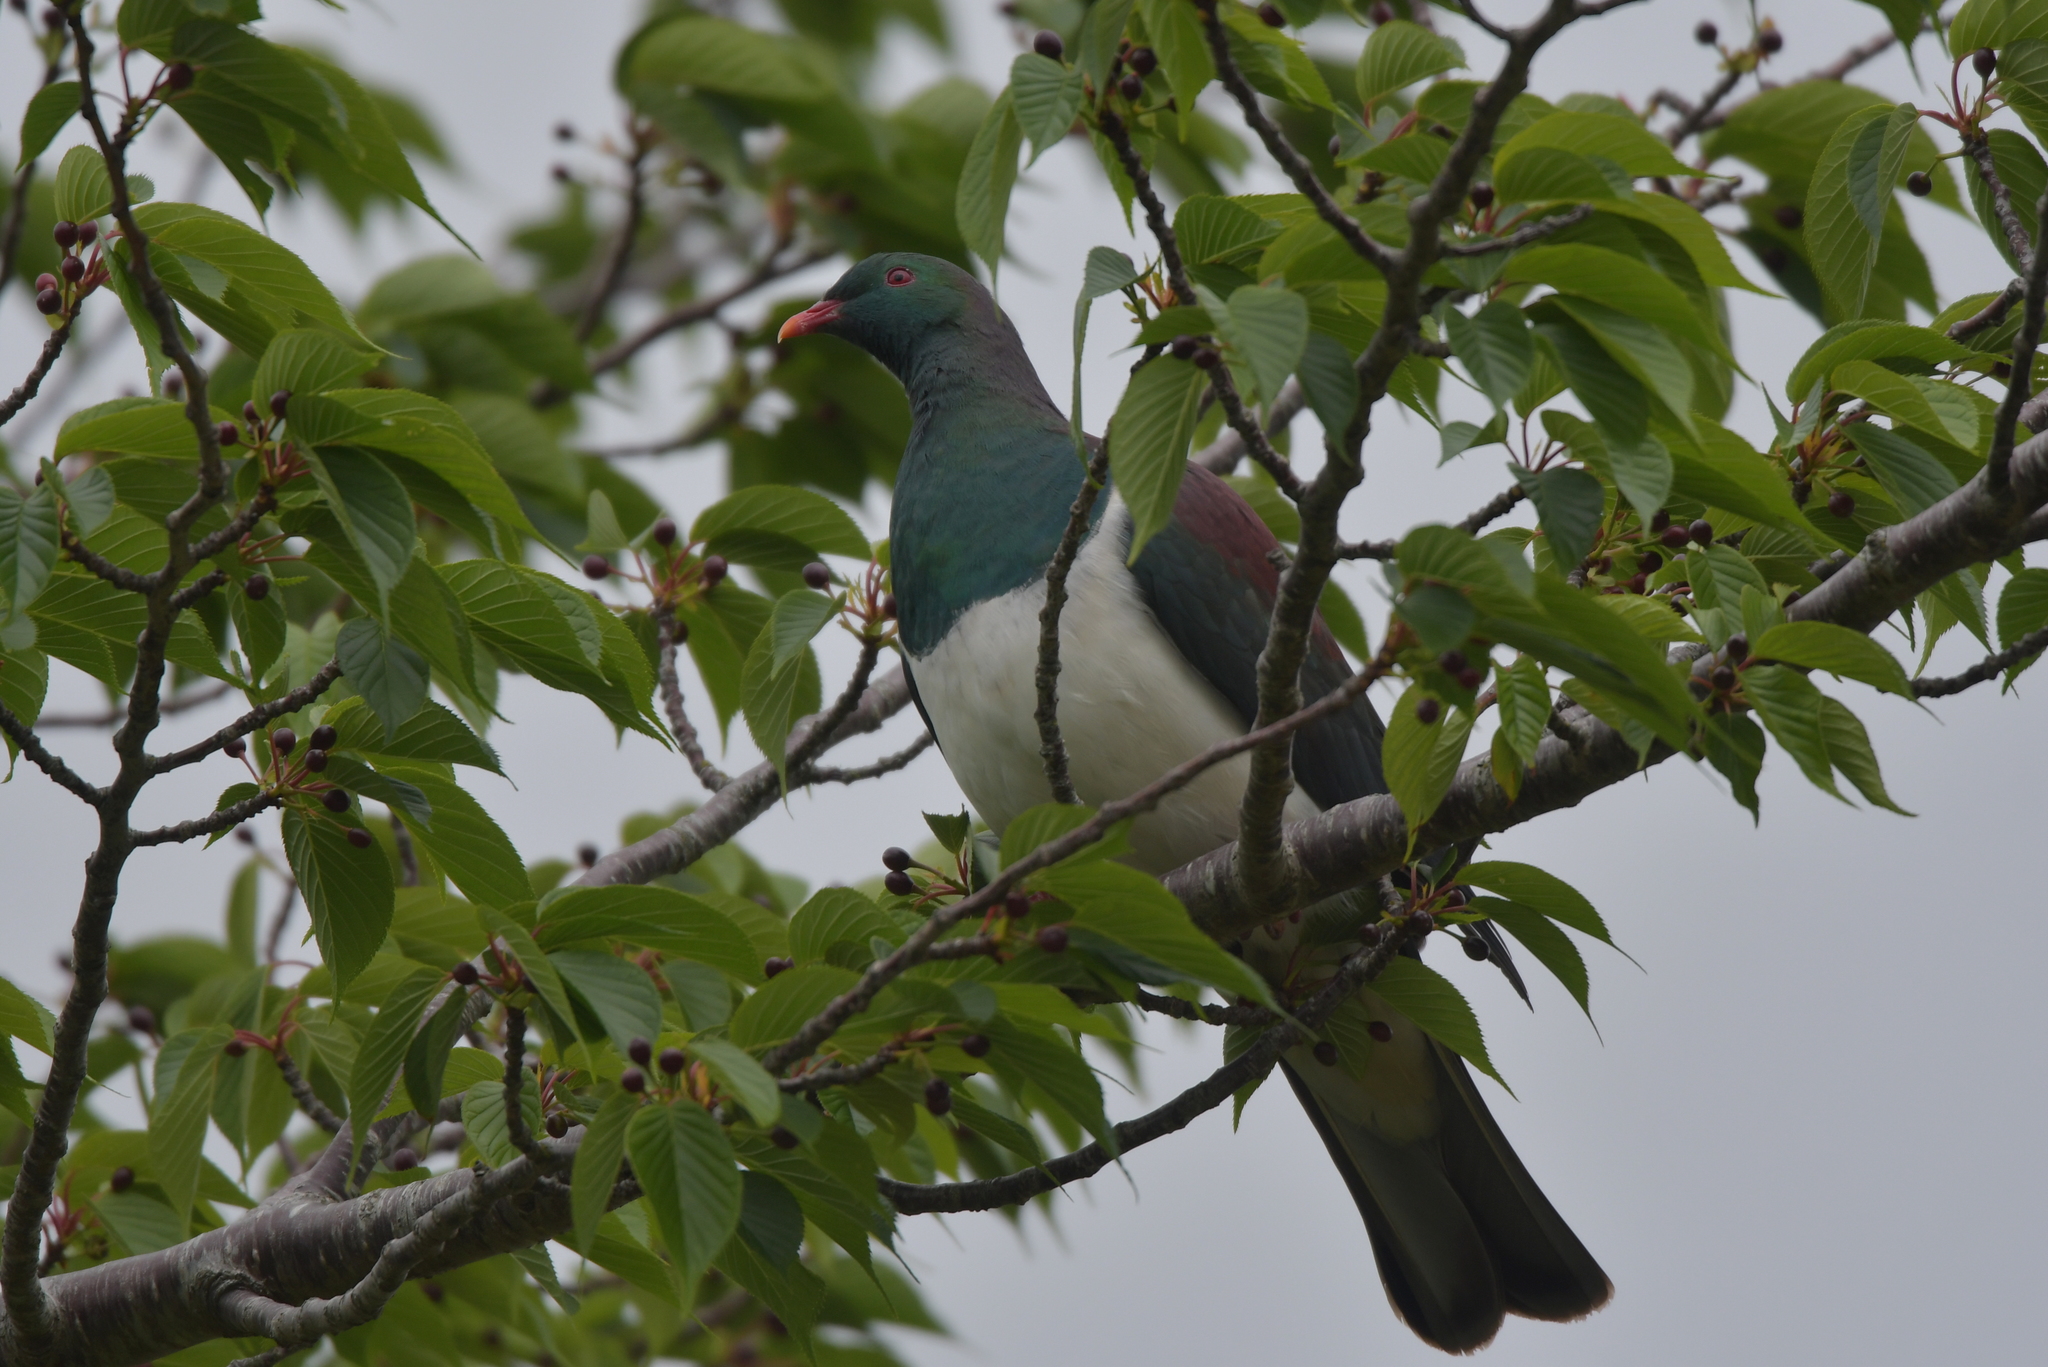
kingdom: Animalia
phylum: Chordata
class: Aves
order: Columbiformes
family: Columbidae
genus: Hemiphaga
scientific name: Hemiphaga novaeseelandiae
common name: New zealand pigeon
